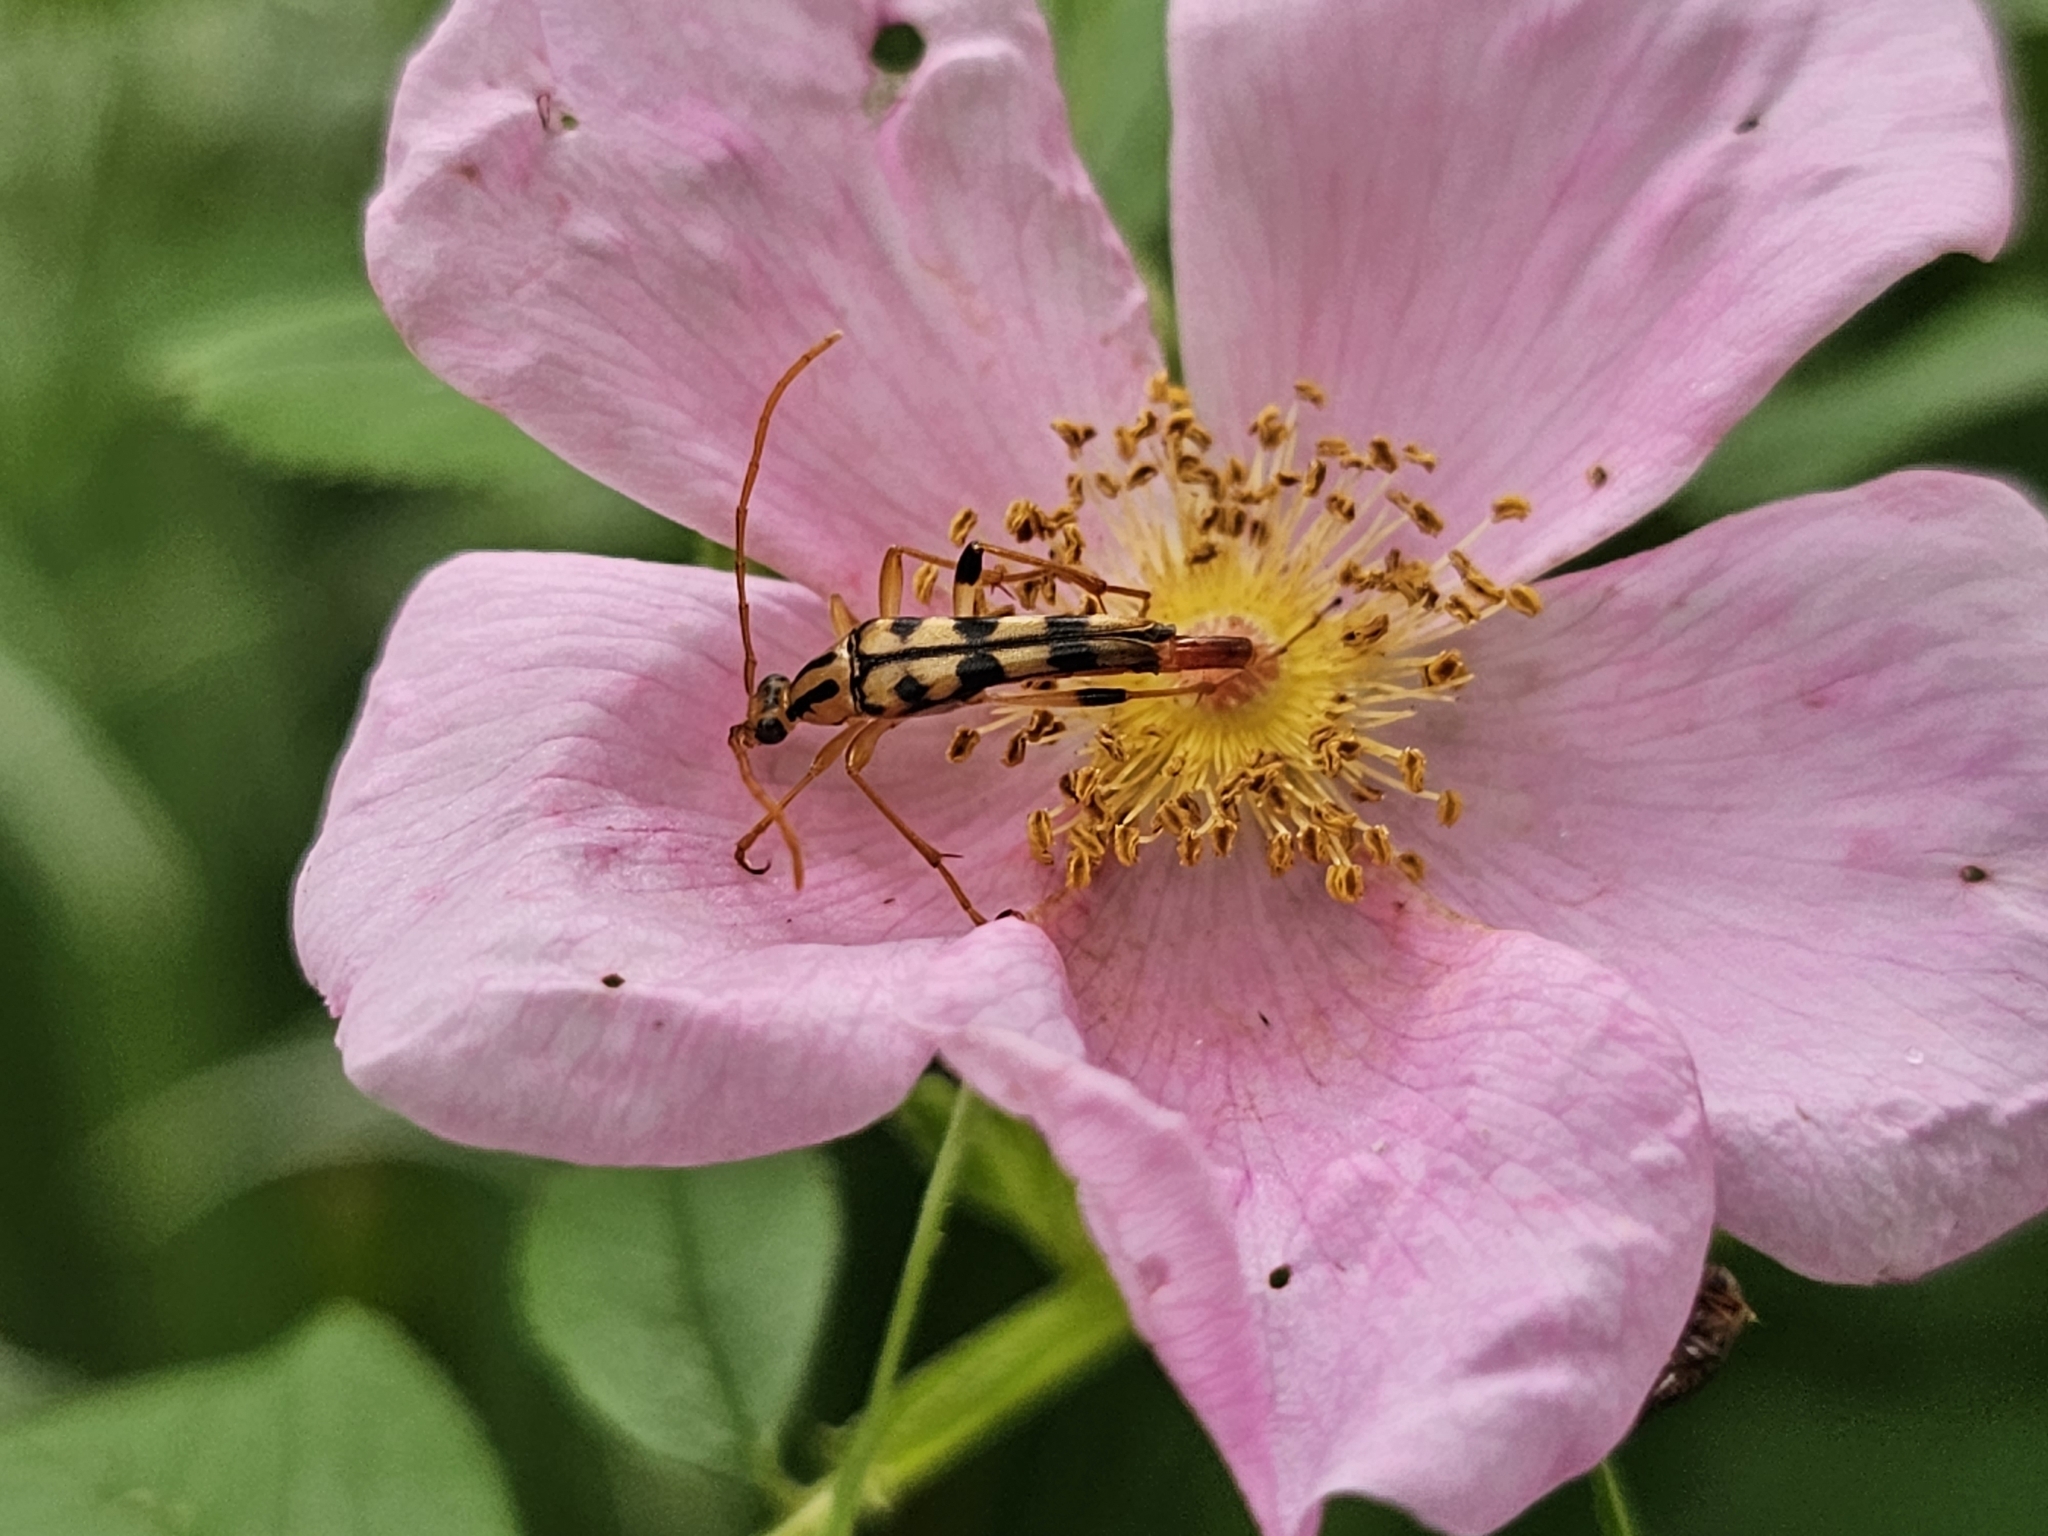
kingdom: Animalia
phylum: Arthropoda
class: Insecta
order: Coleoptera
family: Cerambycidae
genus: Strangalia
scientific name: Strangalia luteicornis
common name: Yellow-horned flower longhorn beetle
